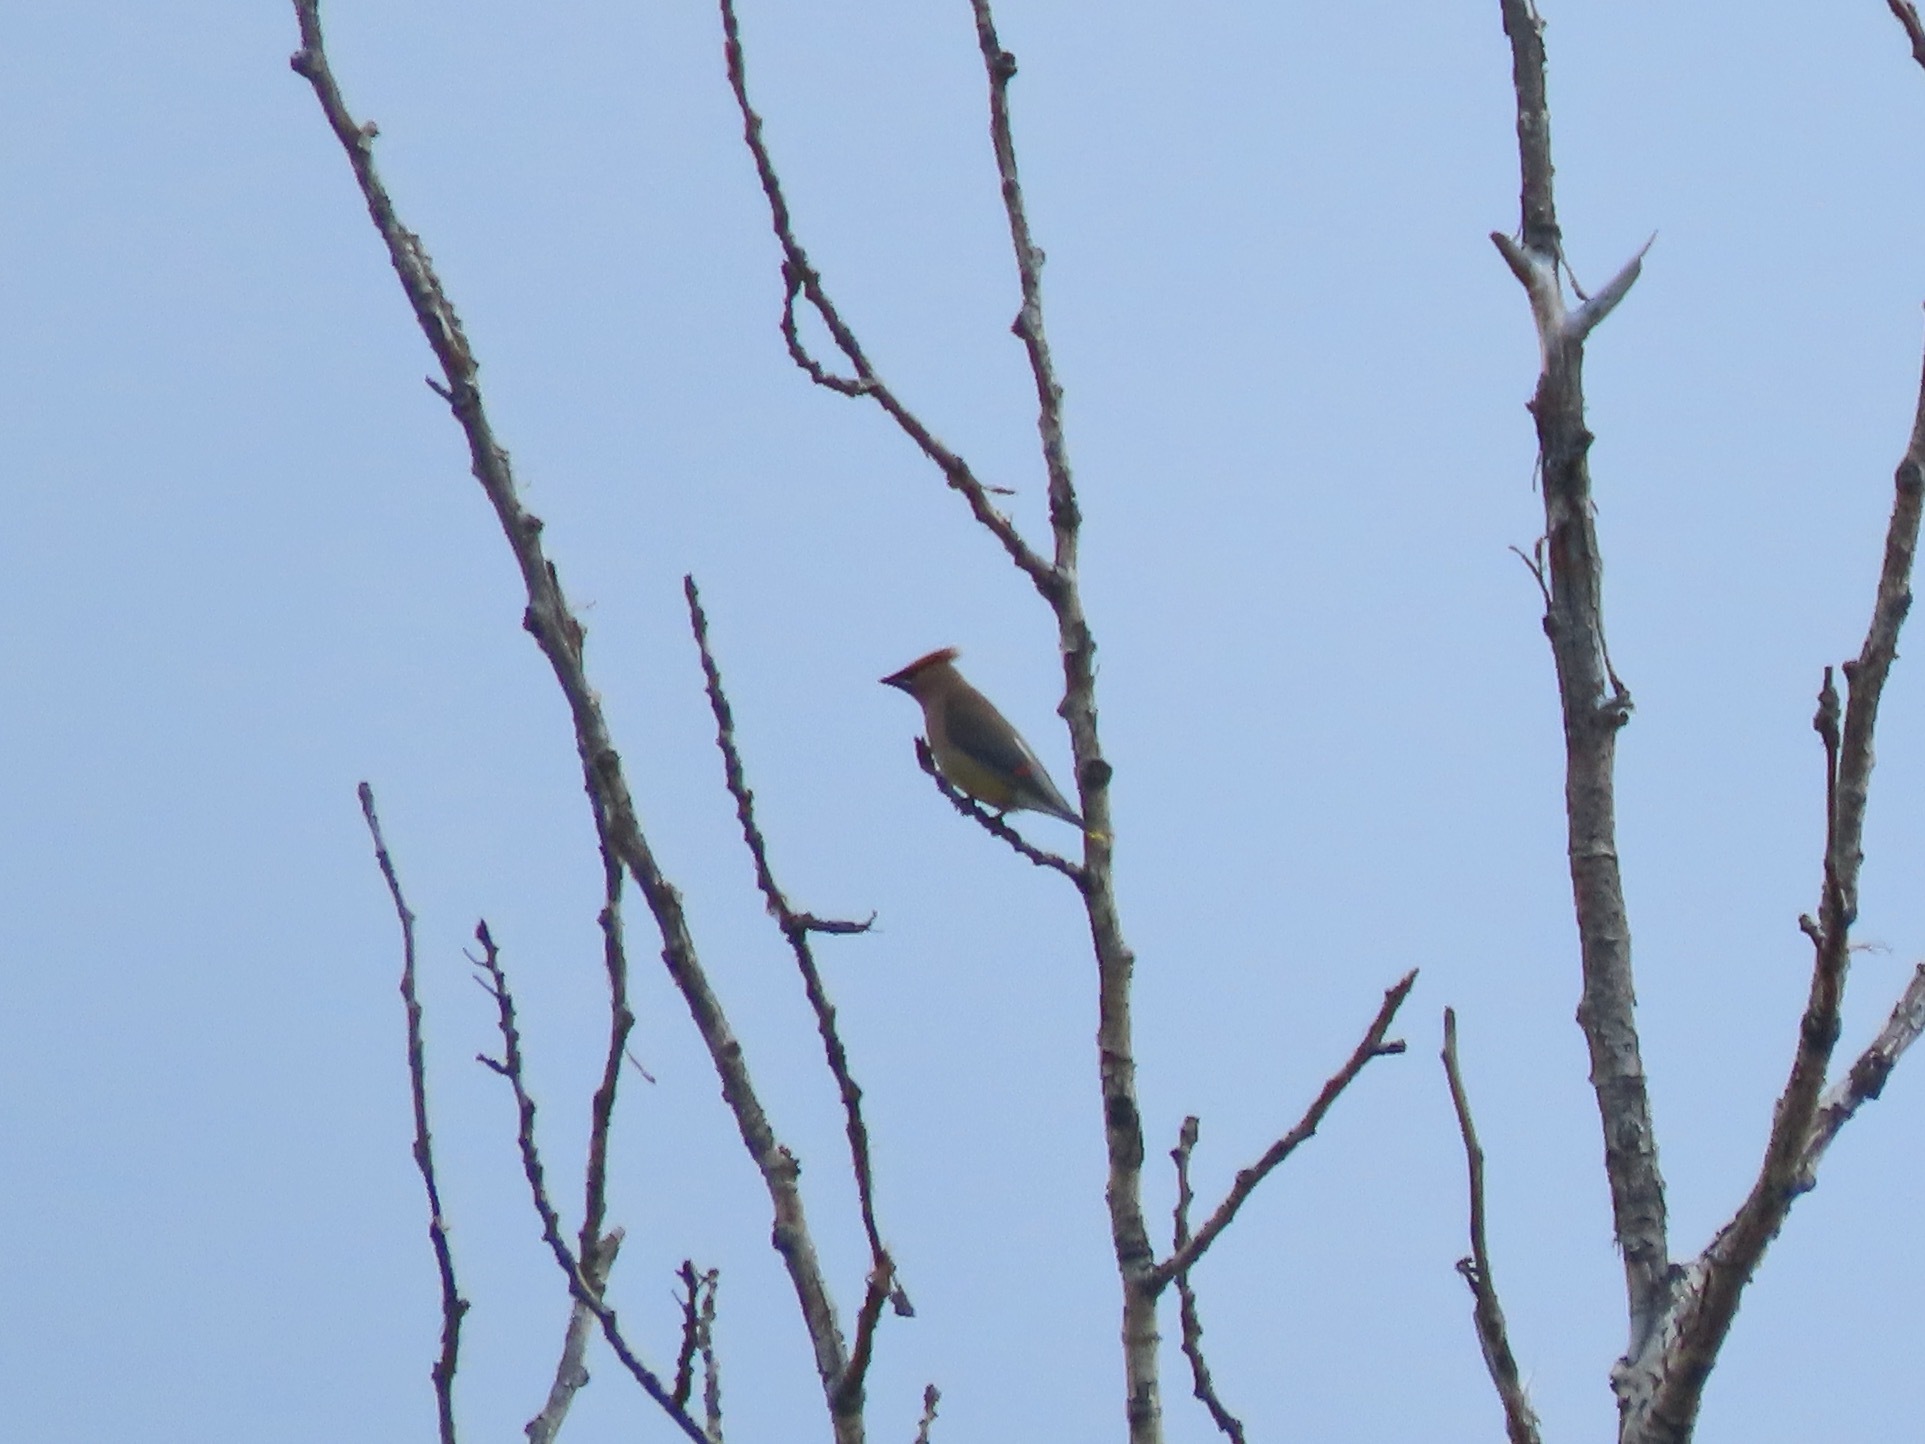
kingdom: Animalia
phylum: Chordata
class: Aves
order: Passeriformes
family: Bombycillidae
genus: Bombycilla
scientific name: Bombycilla cedrorum
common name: Cedar waxwing
